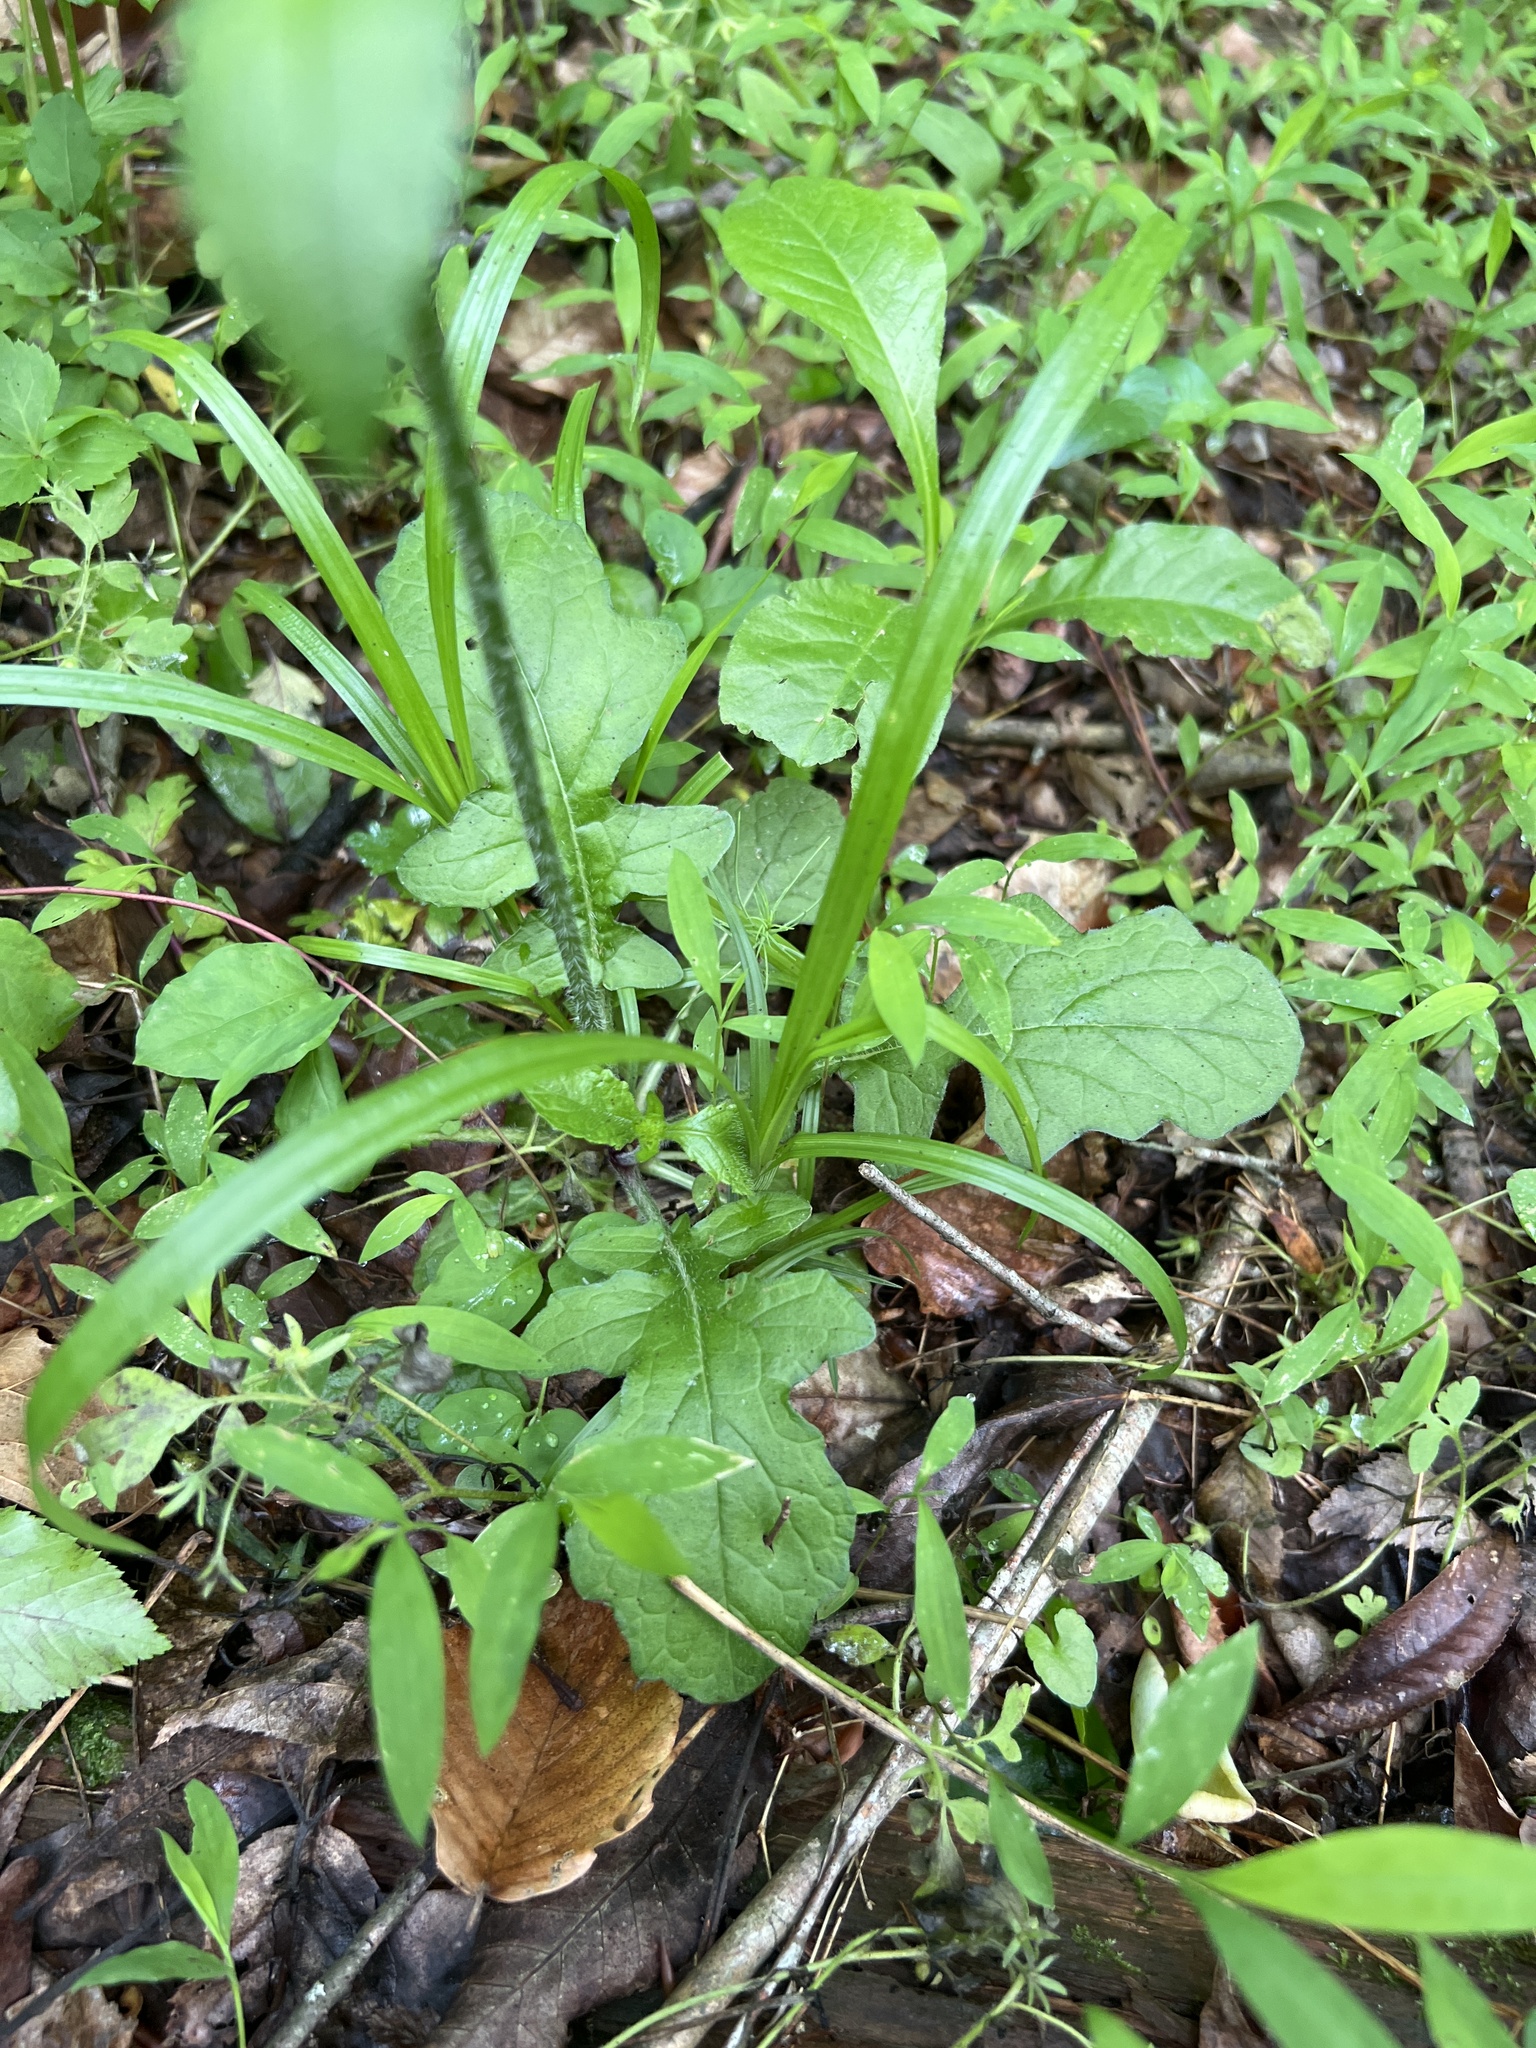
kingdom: Plantae
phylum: Tracheophyta
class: Magnoliopsida
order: Lamiales
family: Lamiaceae
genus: Salvia
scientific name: Salvia lyrata
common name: Cancerweed
